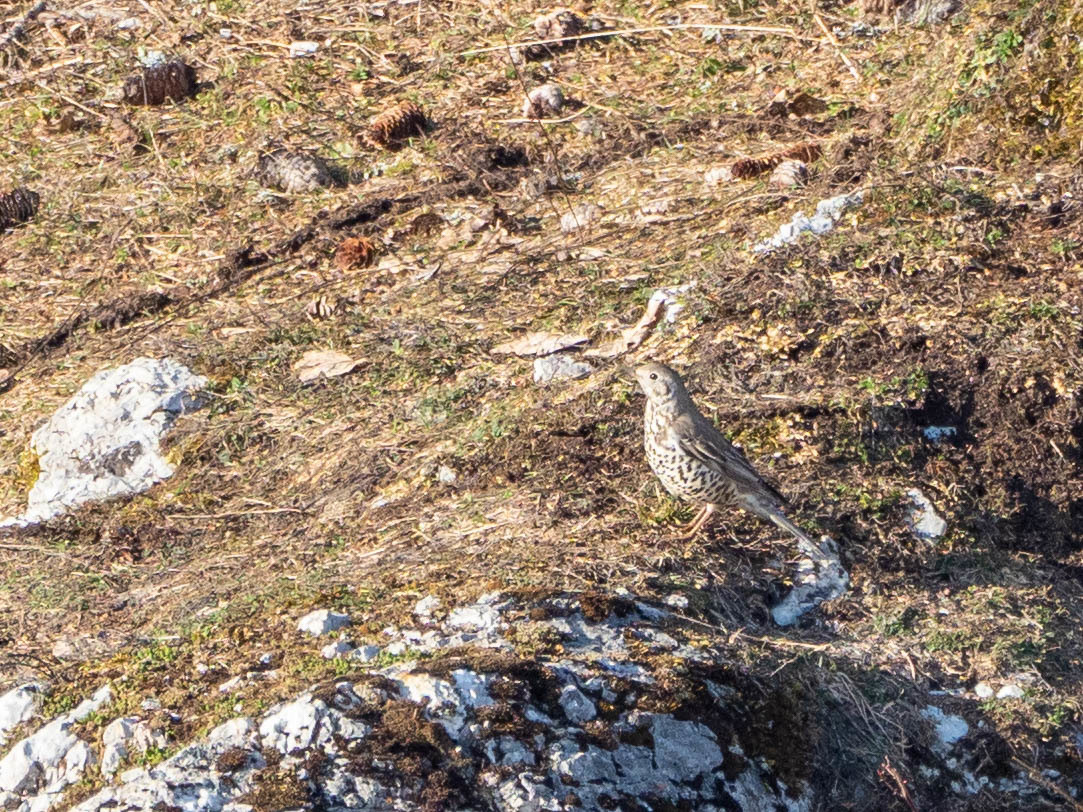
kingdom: Animalia
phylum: Chordata
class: Aves
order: Passeriformes
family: Turdidae
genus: Turdus
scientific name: Turdus viscivorus
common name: Mistle thrush
